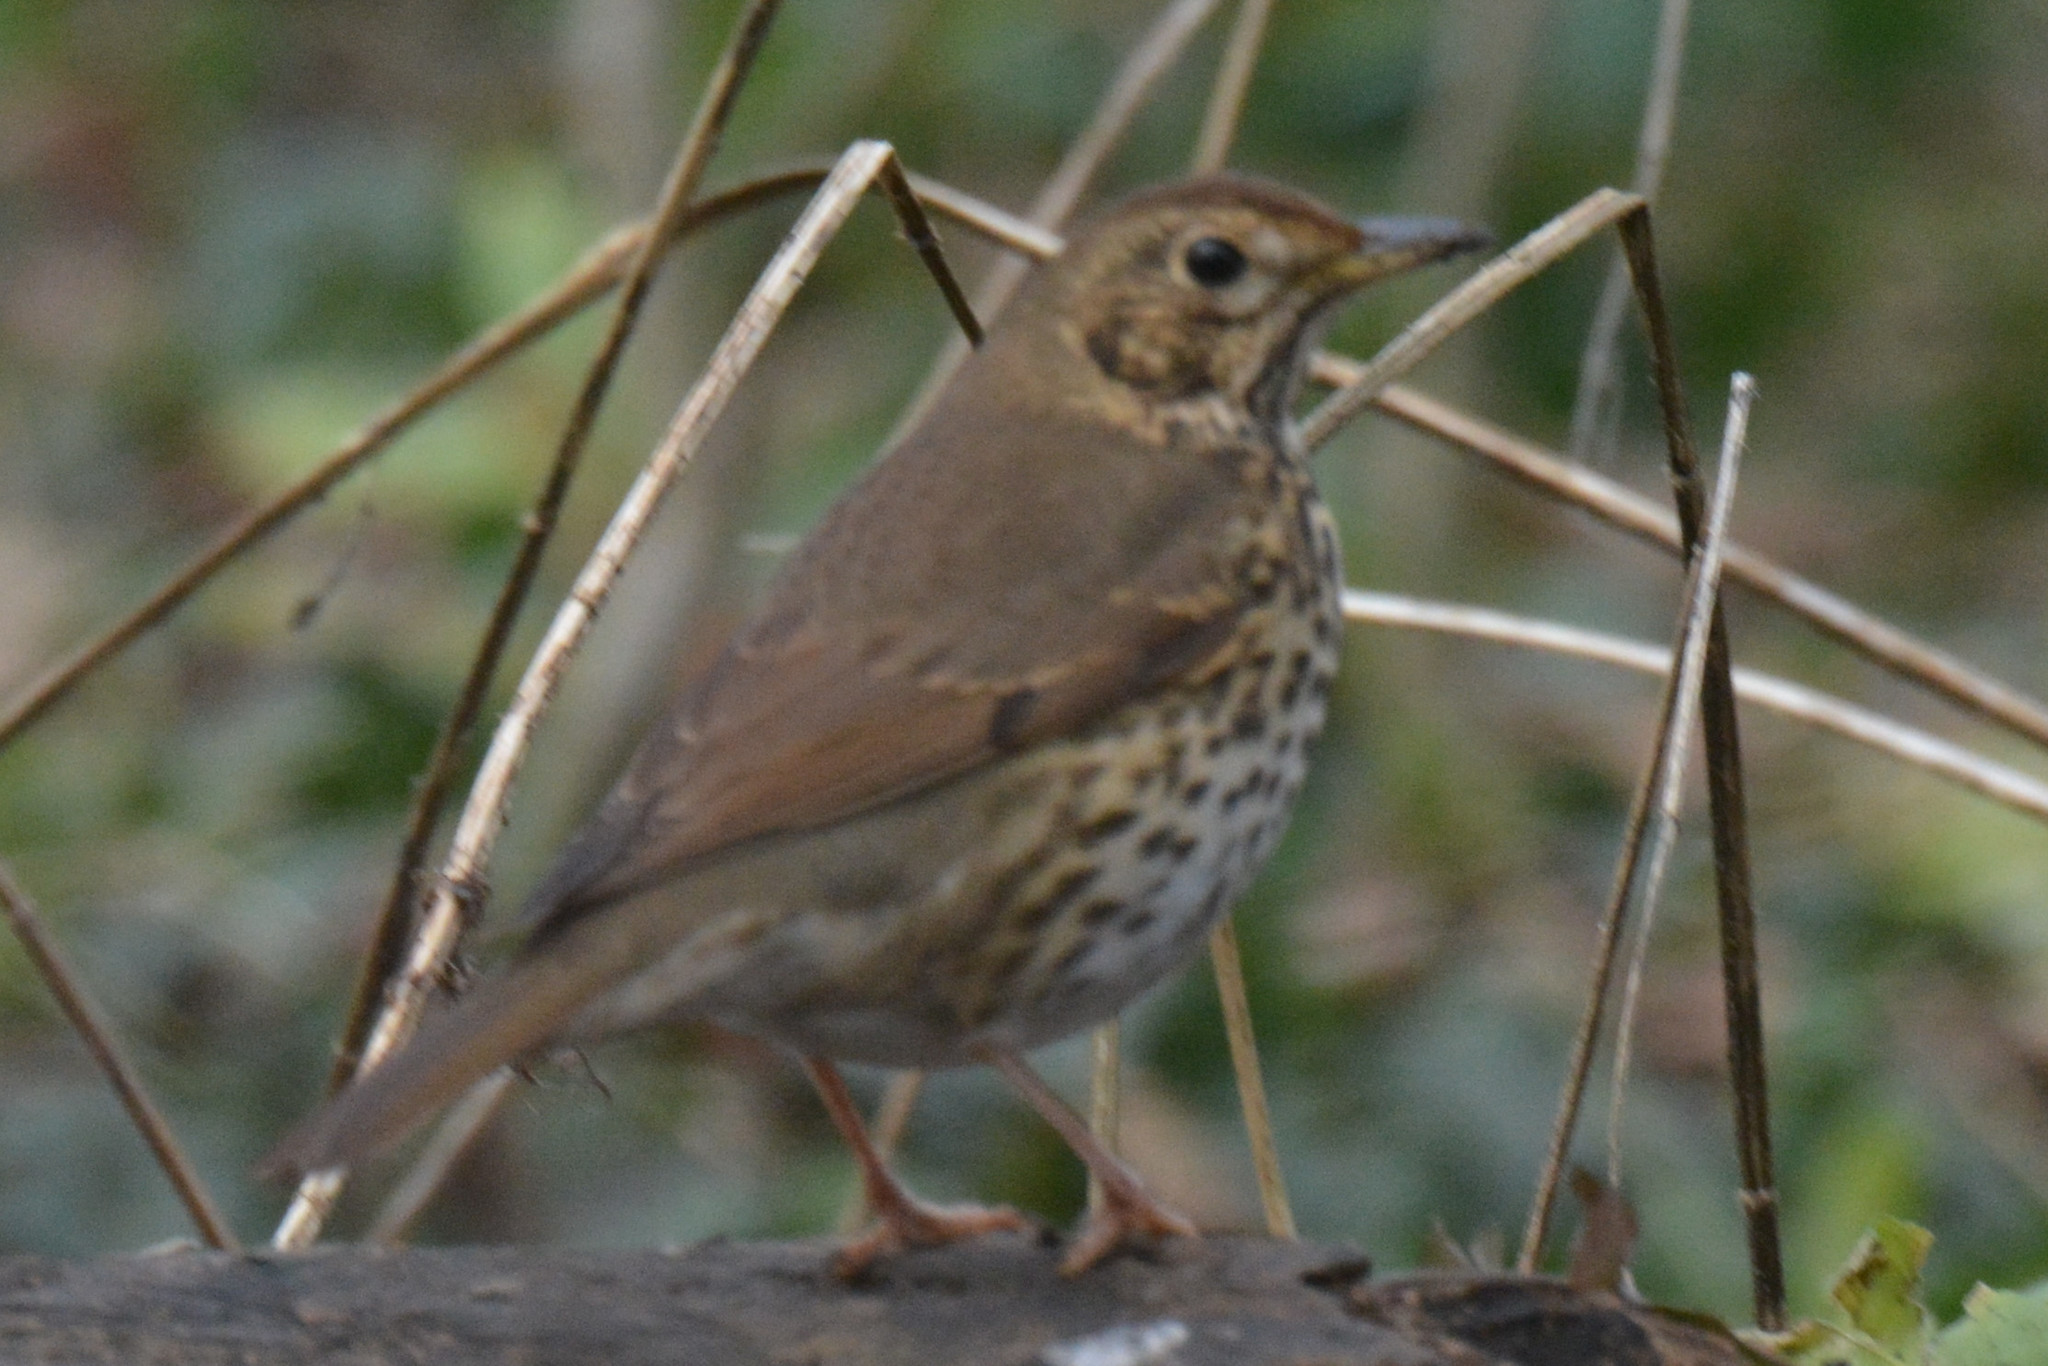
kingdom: Animalia
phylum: Chordata
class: Aves
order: Passeriformes
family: Turdidae
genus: Turdus
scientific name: Turdus philomelos
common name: Song thrush
